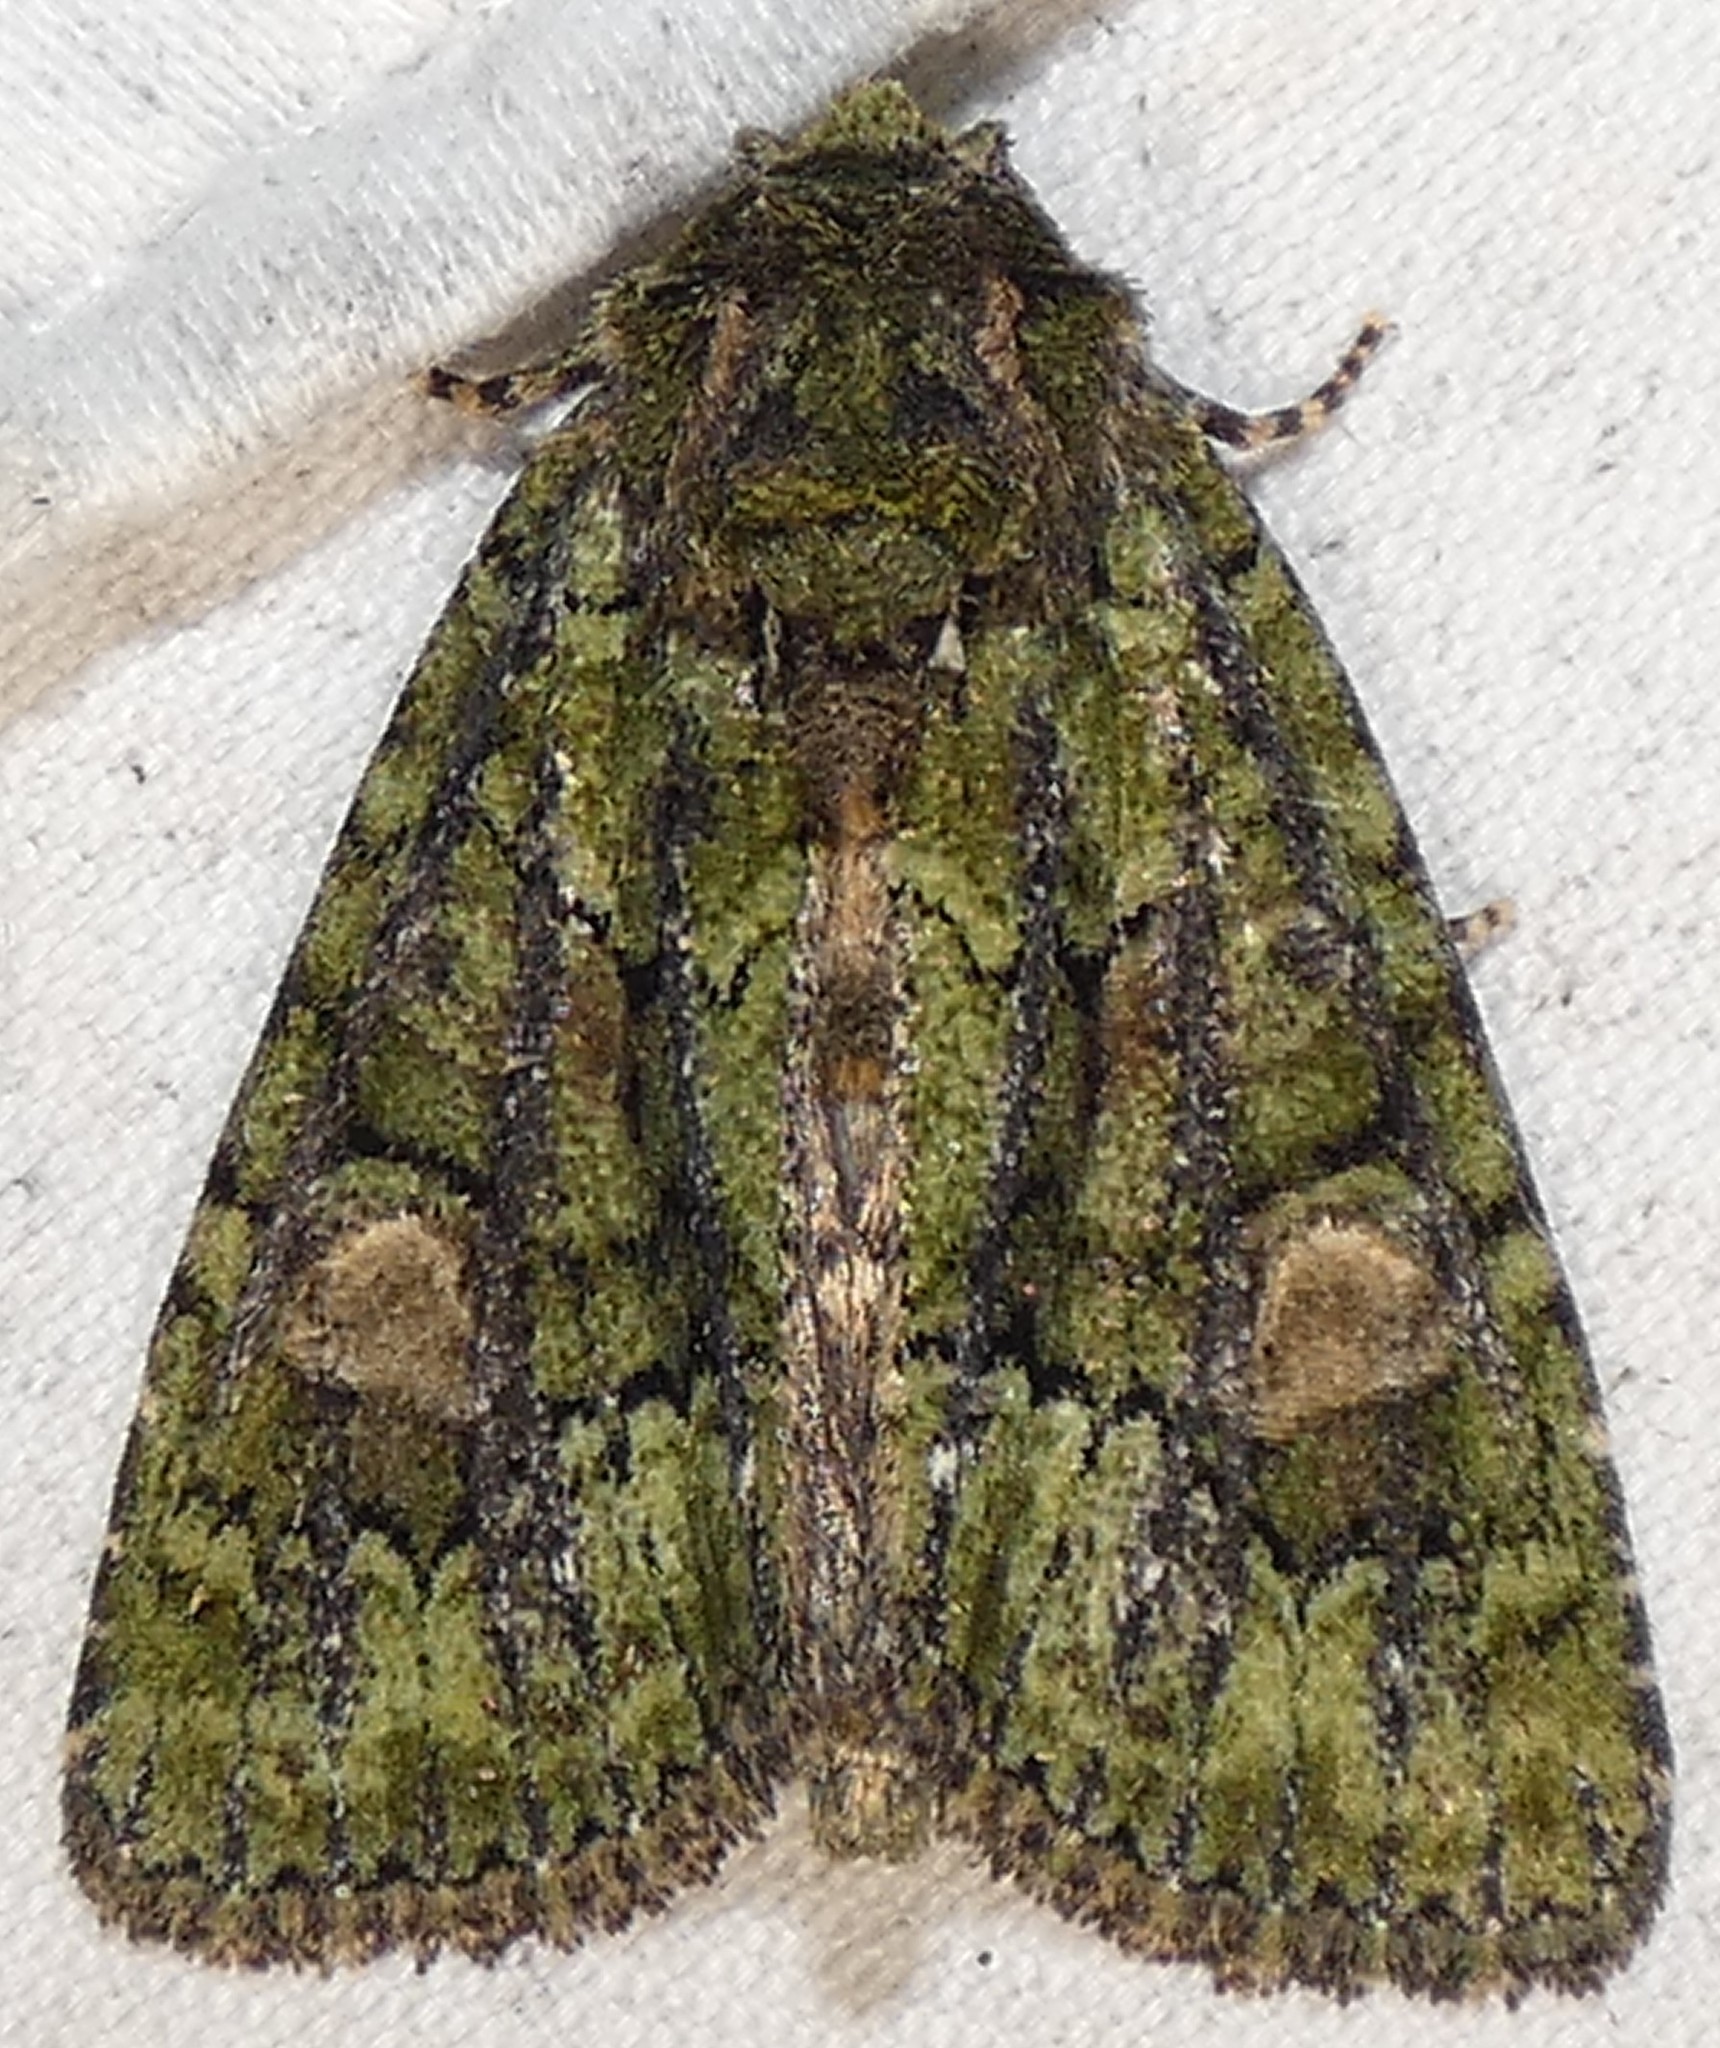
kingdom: Animalia
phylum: Arthropoda
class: Insecta
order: Lepidoptera
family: Noctuidae
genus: Phosphila
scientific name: Phosphila miselioides
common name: Spotted phosphila moth
